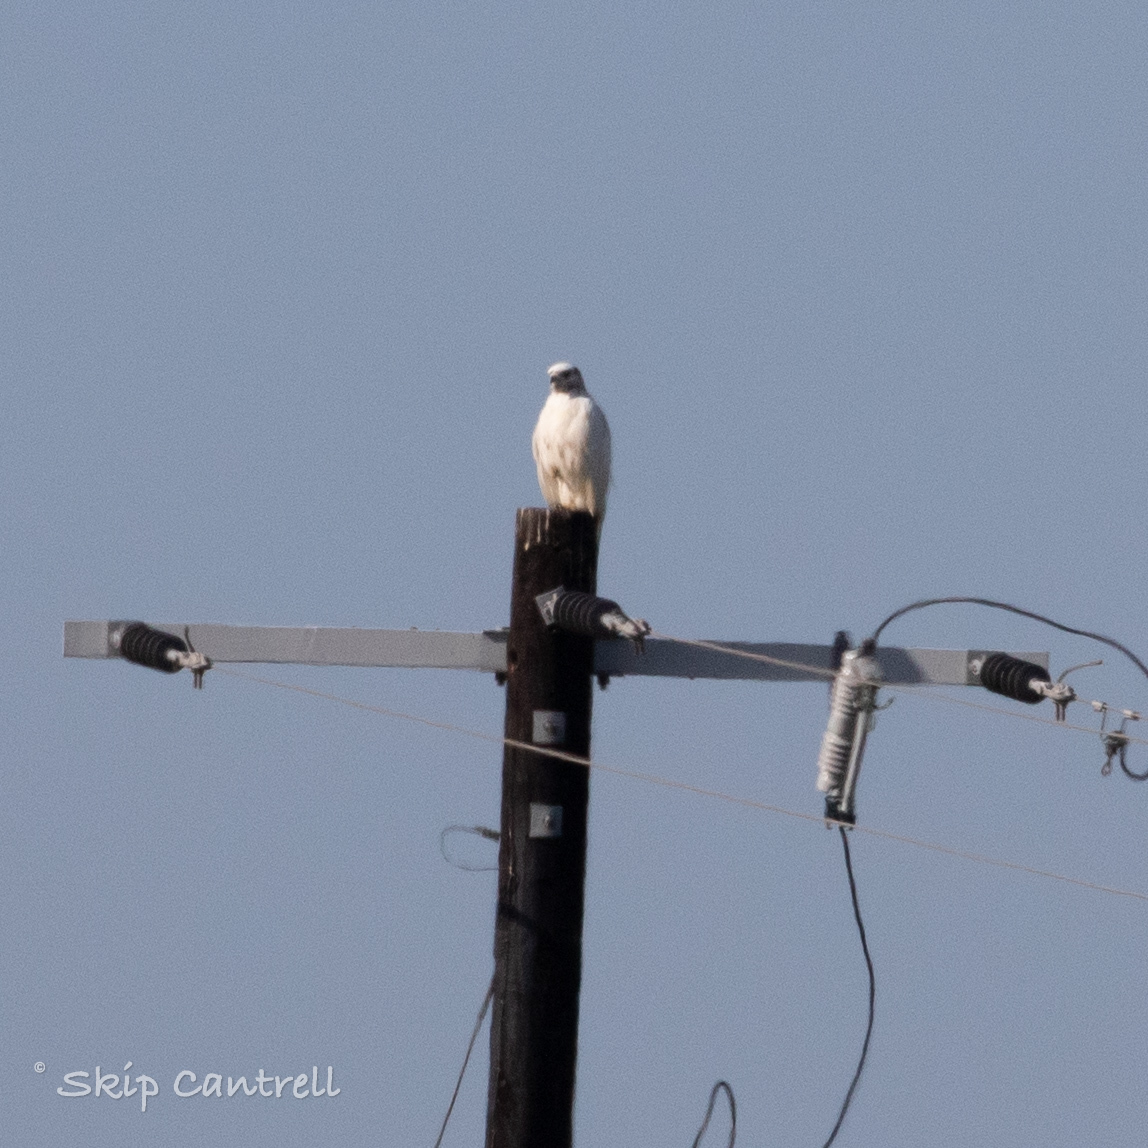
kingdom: Animalia
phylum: Chordata
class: Aves
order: Accipitriformes
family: Accipitridae
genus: Buteo
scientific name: Buteo jamaicensis
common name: Red-tailed hawk
